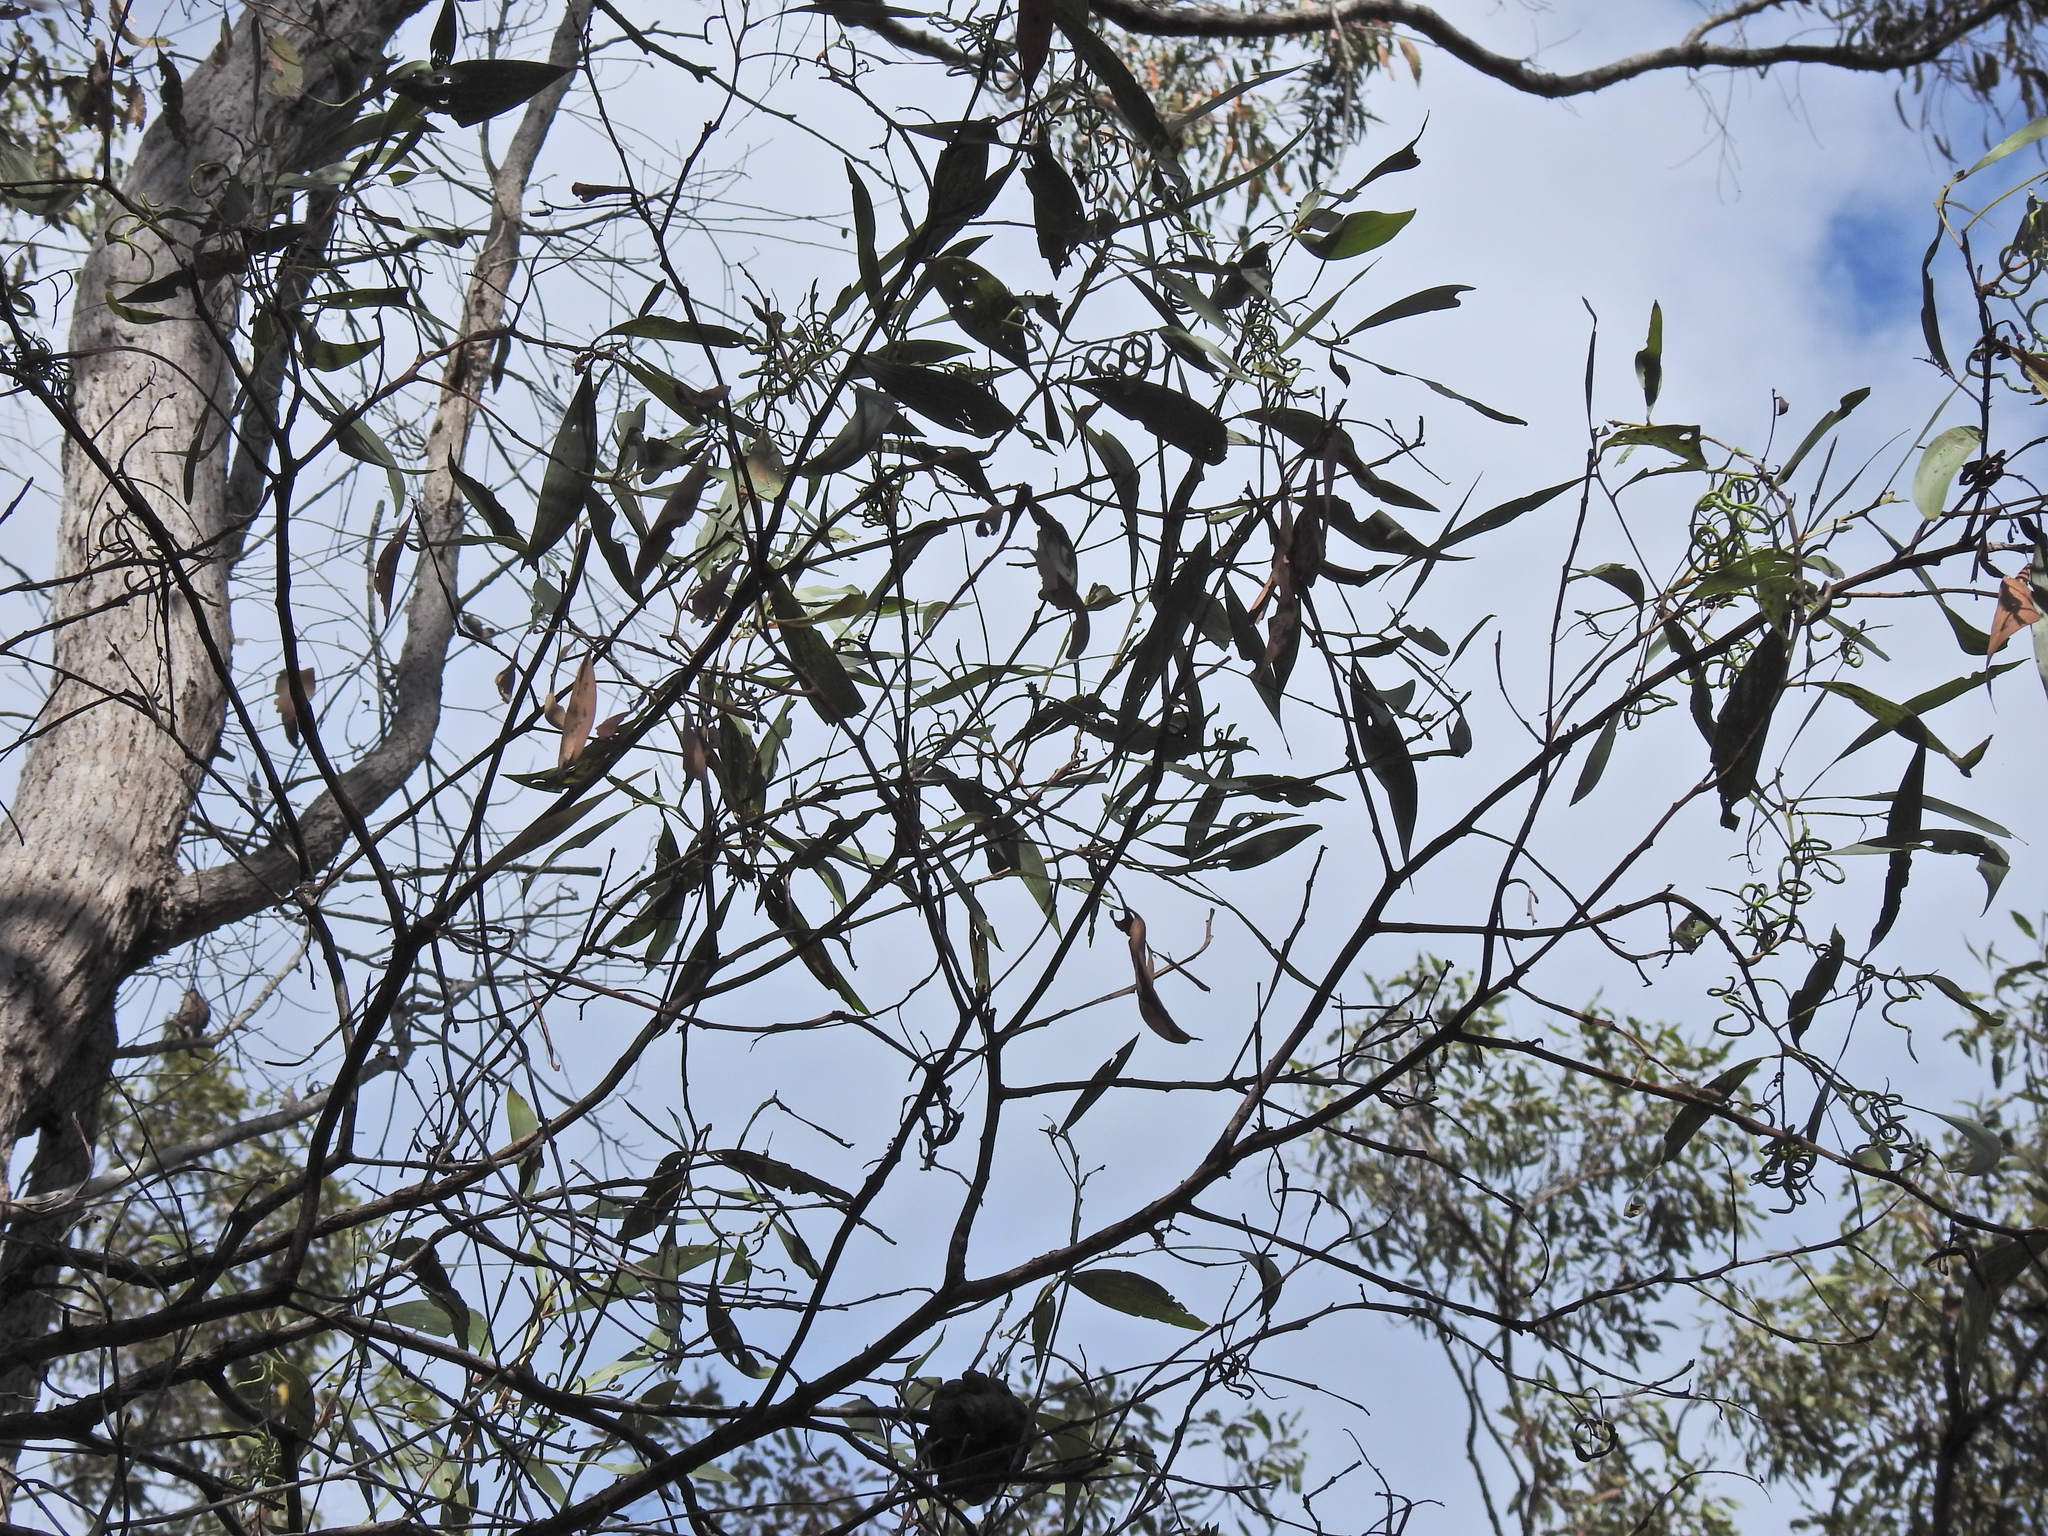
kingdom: Plantae
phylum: Tracheophyta
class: Magnoliopsida
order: Fabales
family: Fabaceae
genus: Acacia
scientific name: Acacia leiocalyx
